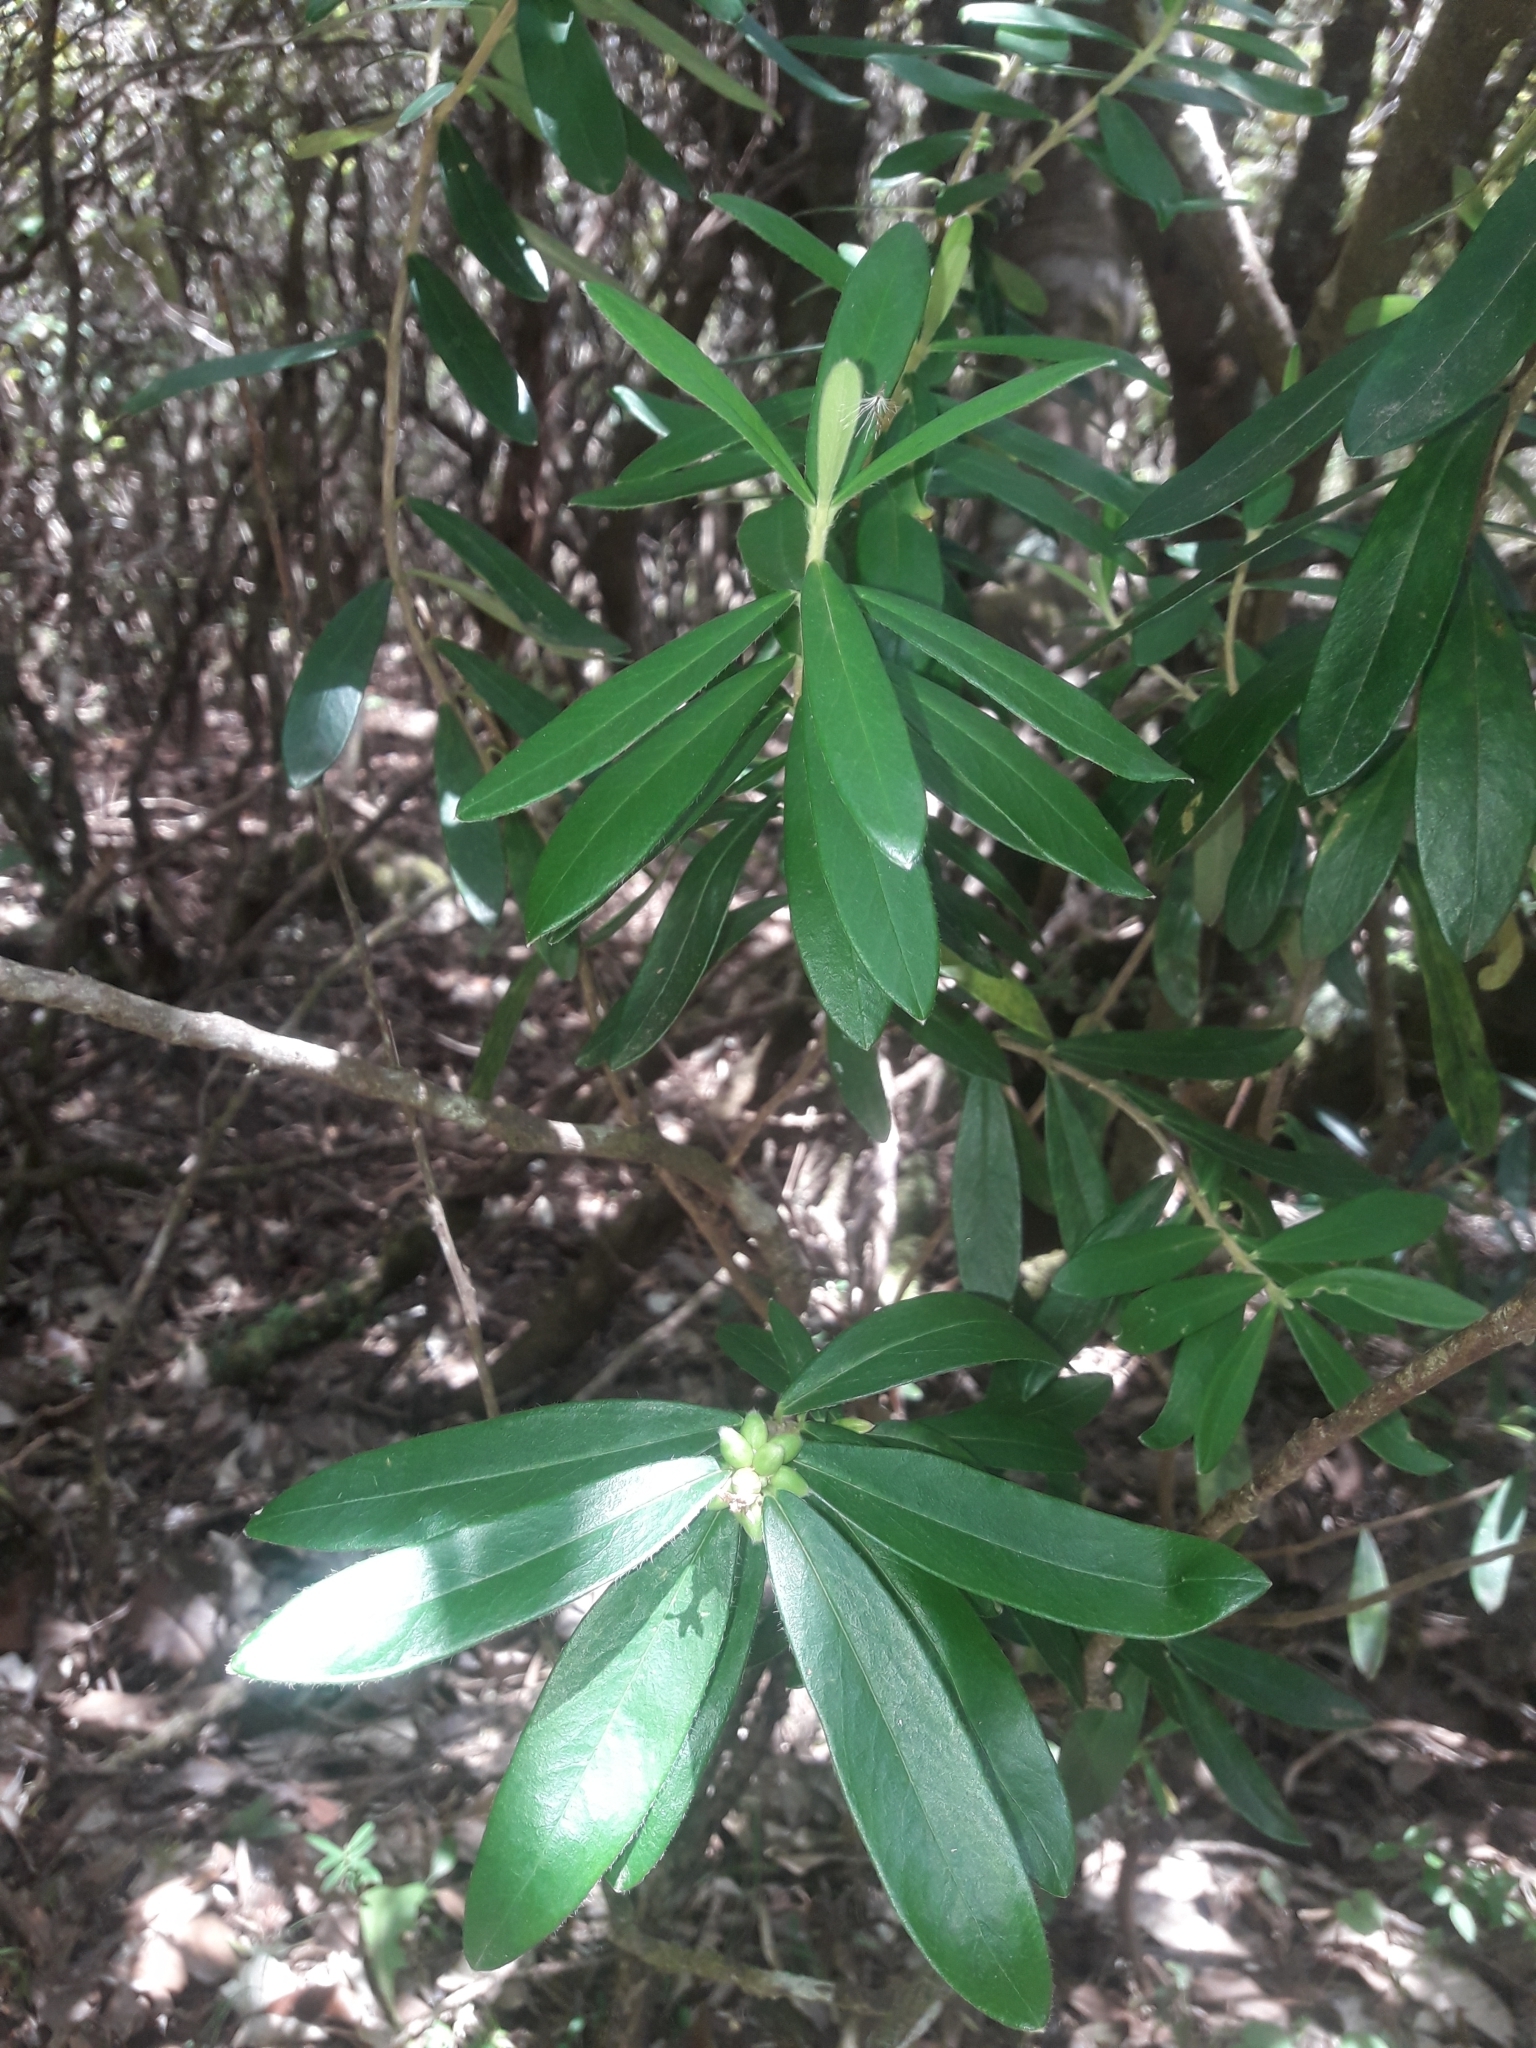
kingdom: Plantae
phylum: Tracheophyta
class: Magnoliopsida
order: Malvales
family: Thymelaeaceae
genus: Pimelea
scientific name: Pimelea drupacea
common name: Cherry riceflower
